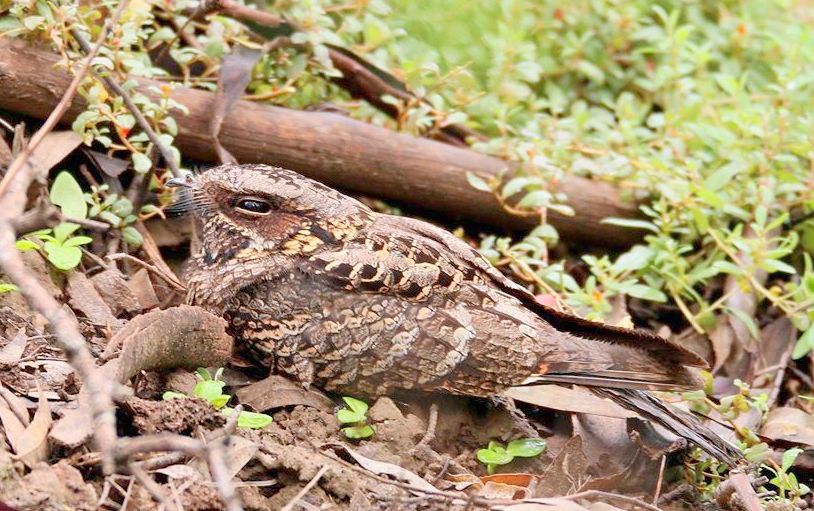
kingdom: Animalia
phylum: Chordata
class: Aves
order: Caprimulgiformes
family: Caprimulgidae
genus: Caprimulgus
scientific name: Caprimulgus pectoralis
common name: Fiery-necked nightjar
